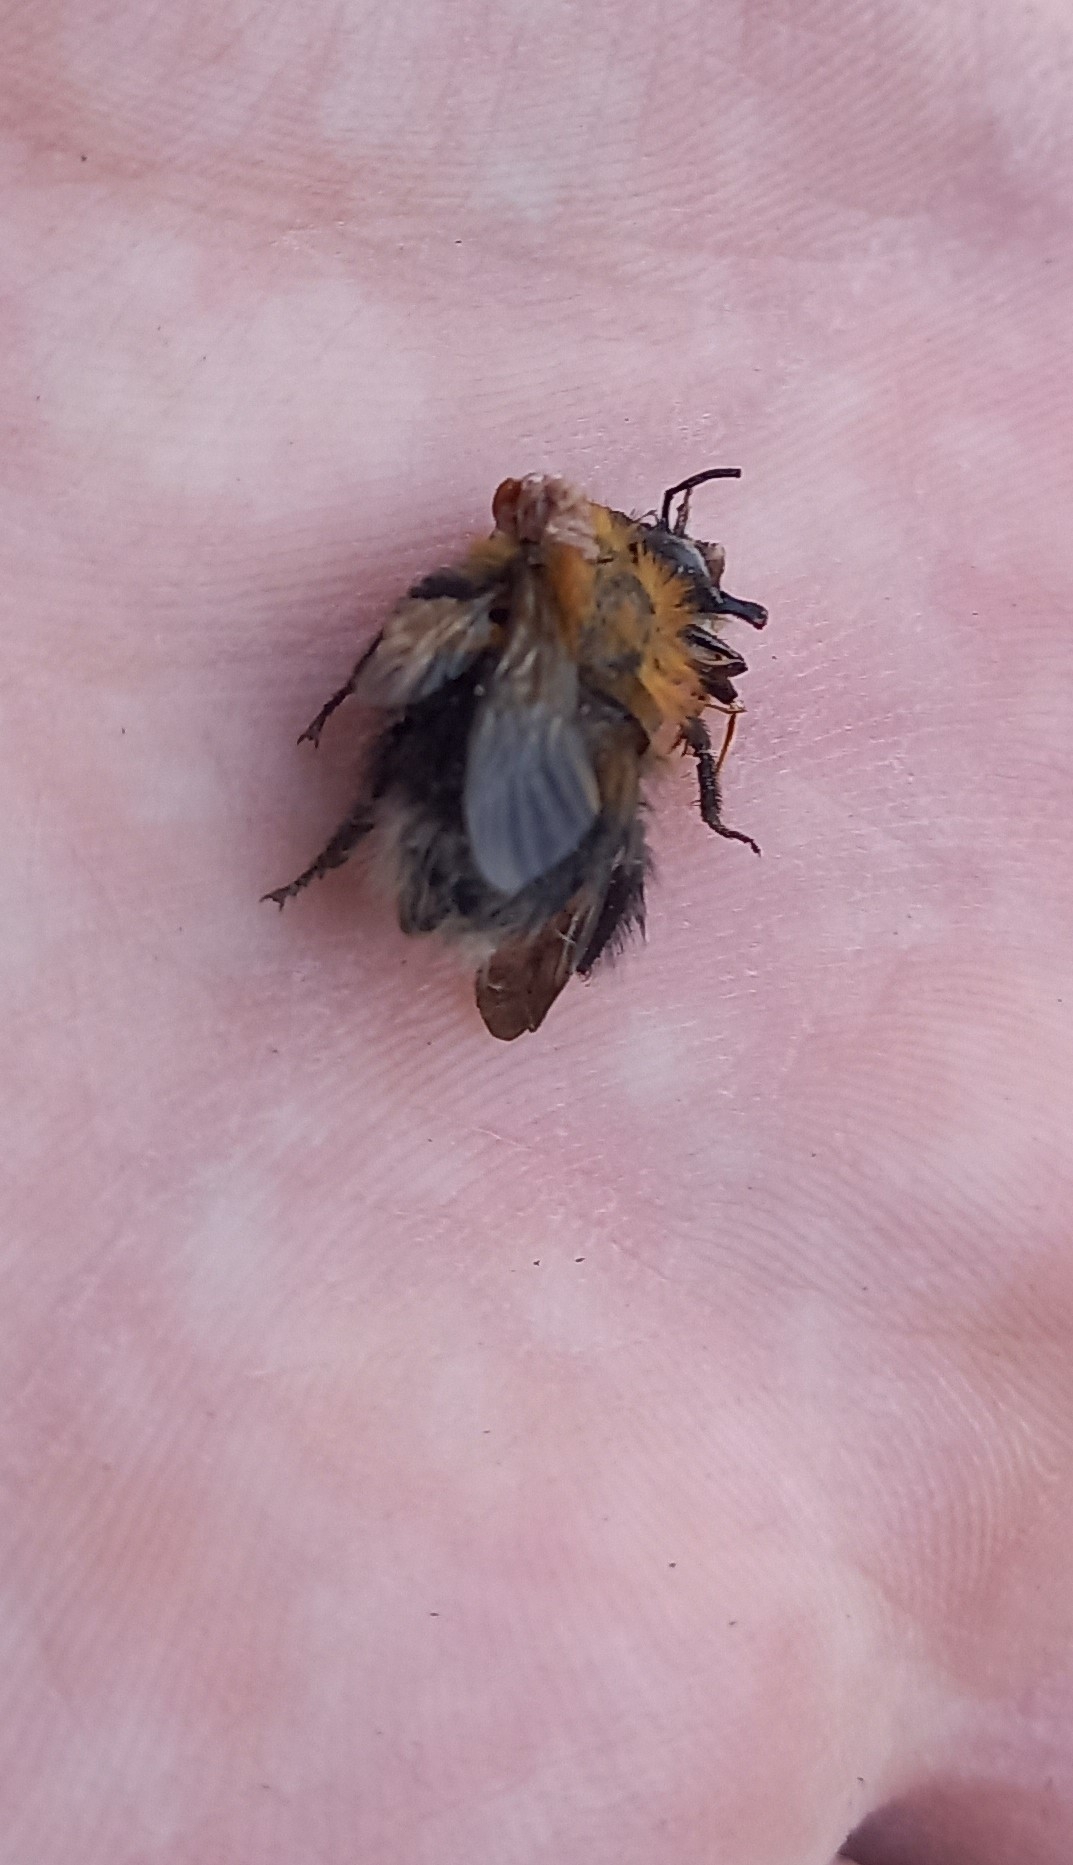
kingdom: Animalia
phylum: Arthropoda
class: Insecta
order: Hymenoptera
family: Apidae
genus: Bombus
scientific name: Bombus hypnorum
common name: New garden bumblebee
